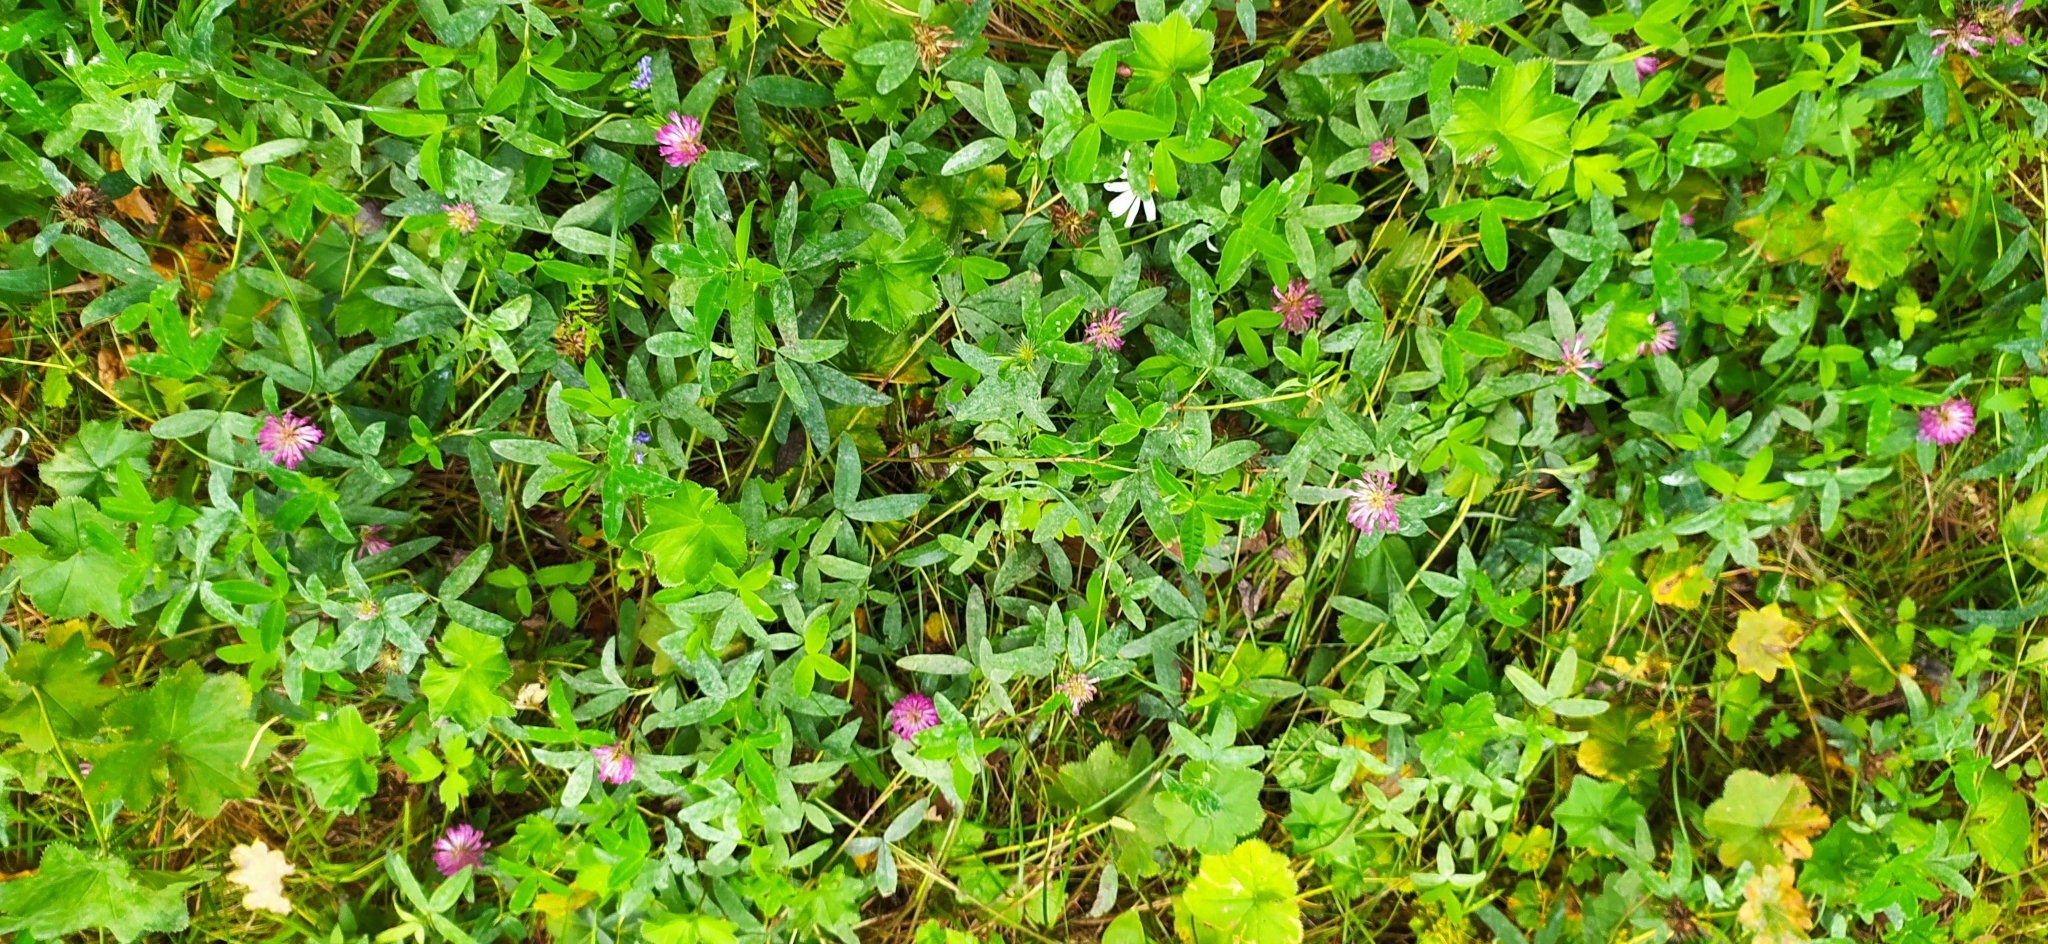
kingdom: Plantae
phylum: Tracheophyta
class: Magnoliopsida
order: Fabales
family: Fabaceae
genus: Trifolium
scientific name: Trifolium medium
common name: Zigzag clover
